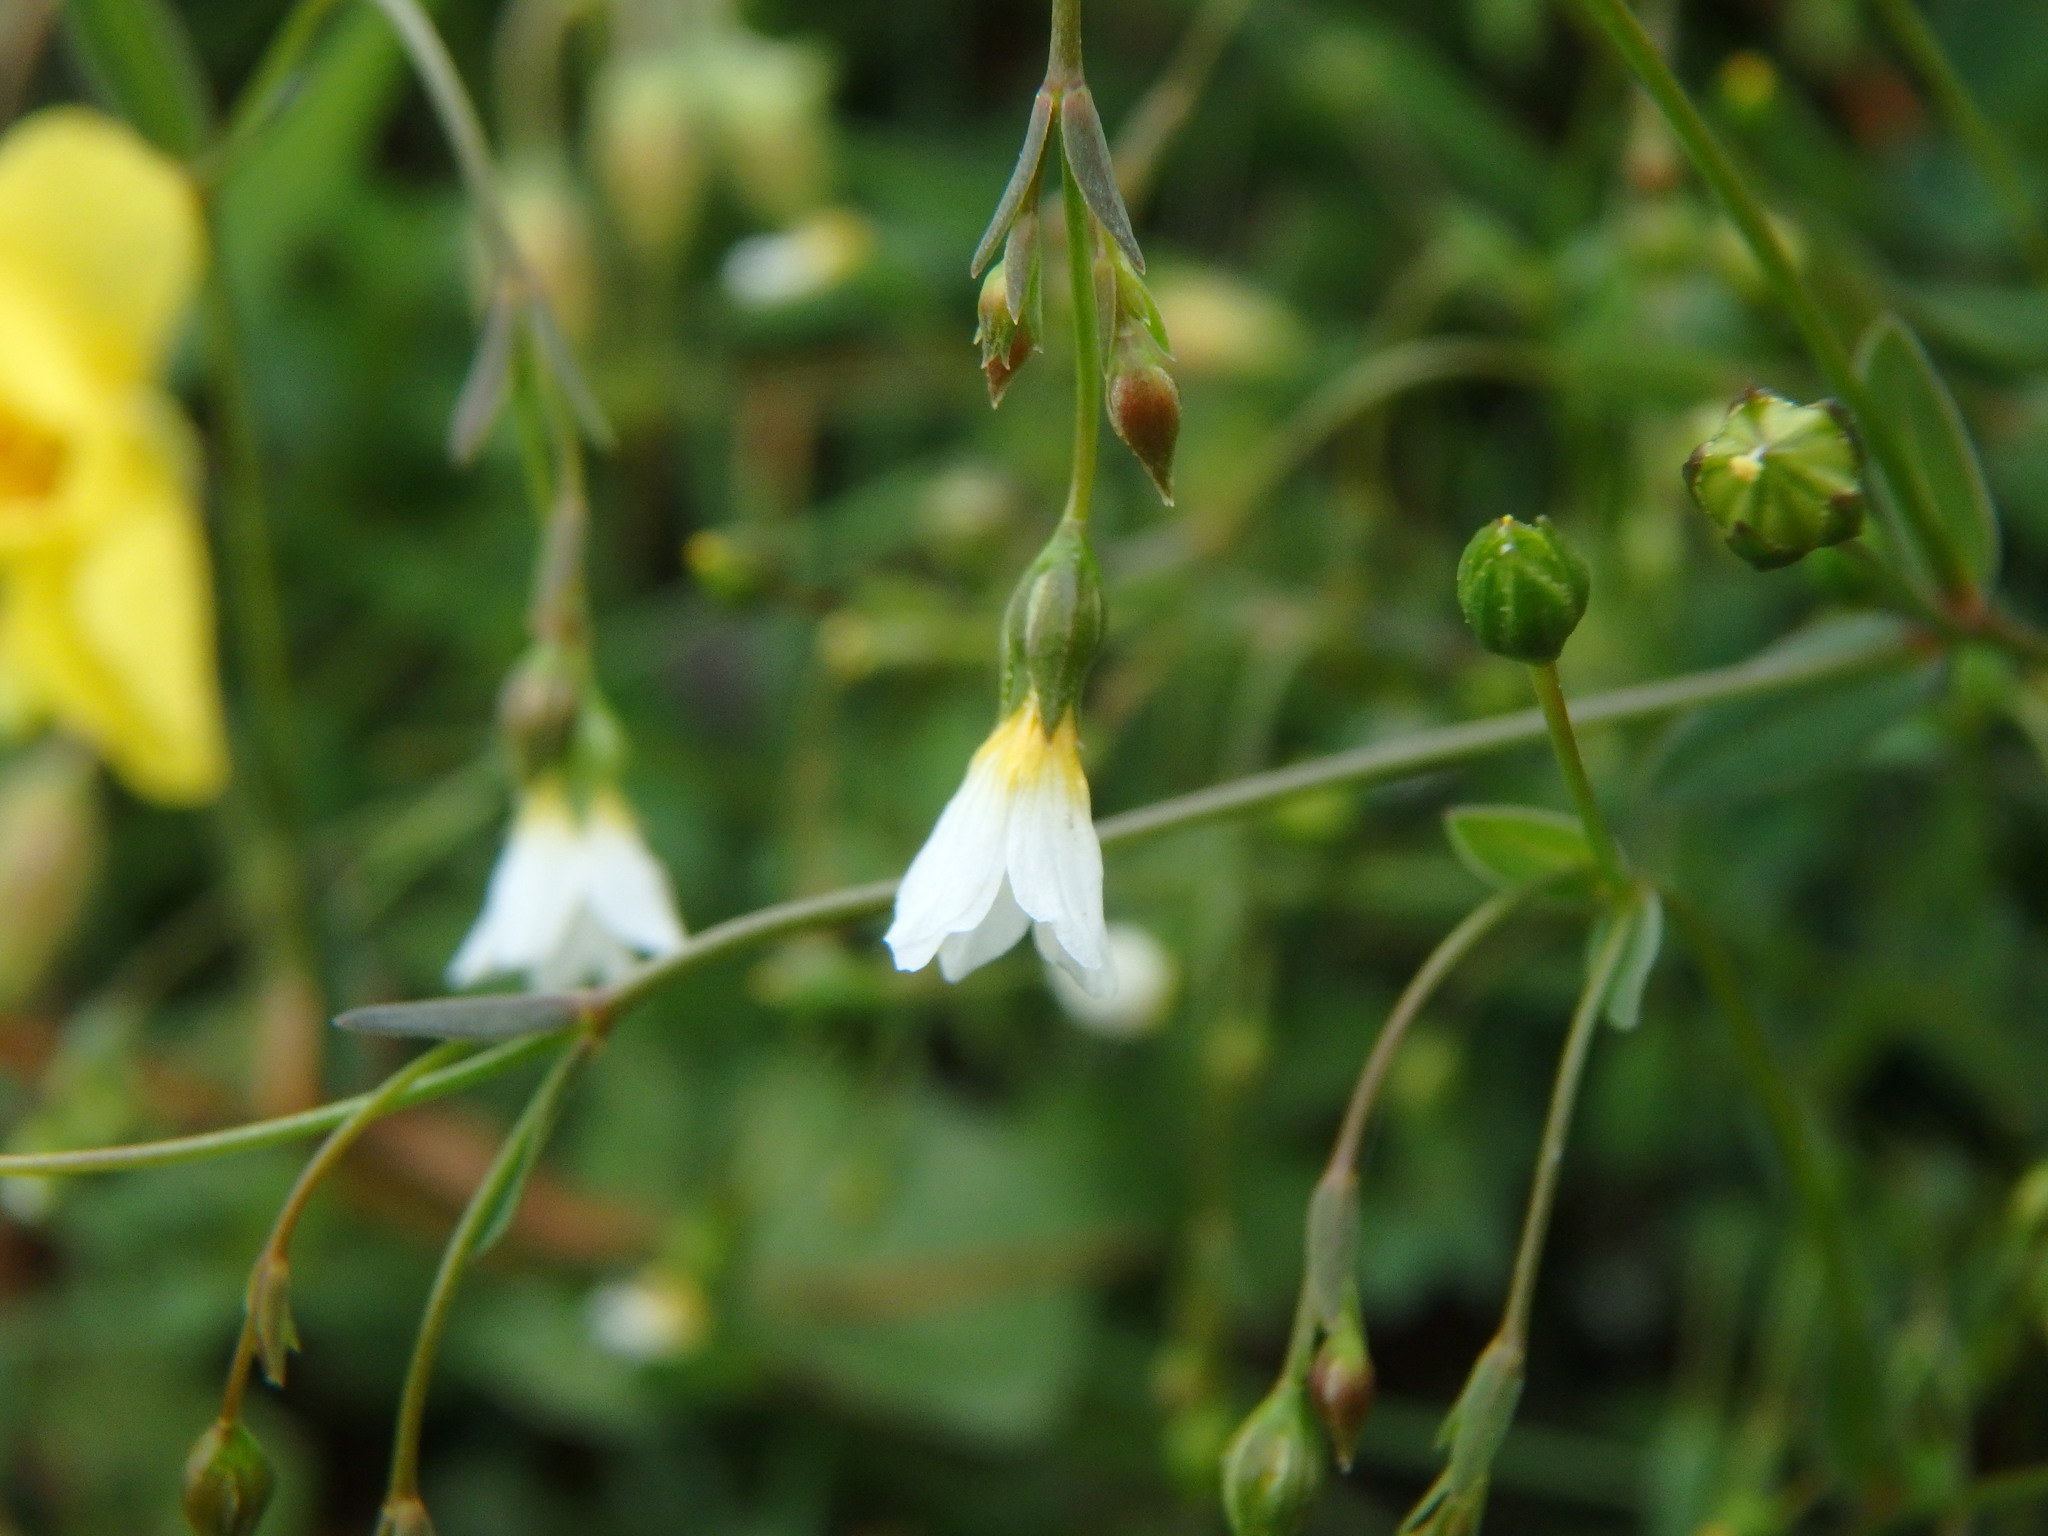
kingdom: Plantae
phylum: Tracheophyta
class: Magnoliopsida
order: Malpighiales
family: Linaceae
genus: Linum
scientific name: Linum catharticum
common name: Fairy flax
